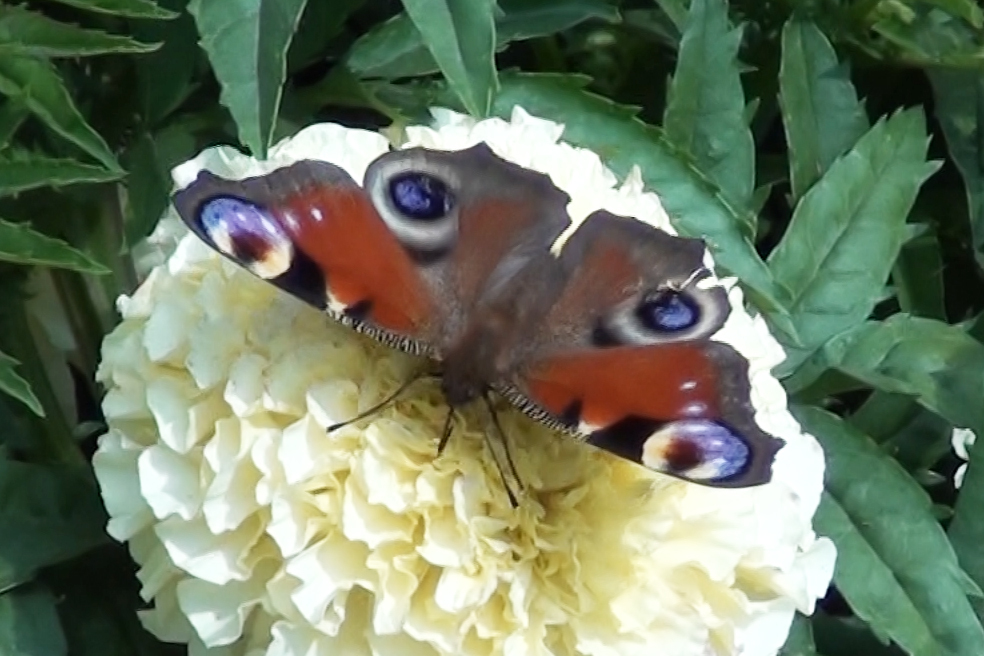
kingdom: Animalia
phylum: Arthropoda
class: Insecta
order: Lepidoptera
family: Nymphalidae
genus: Aglais
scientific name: Aglais io
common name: Peacock
